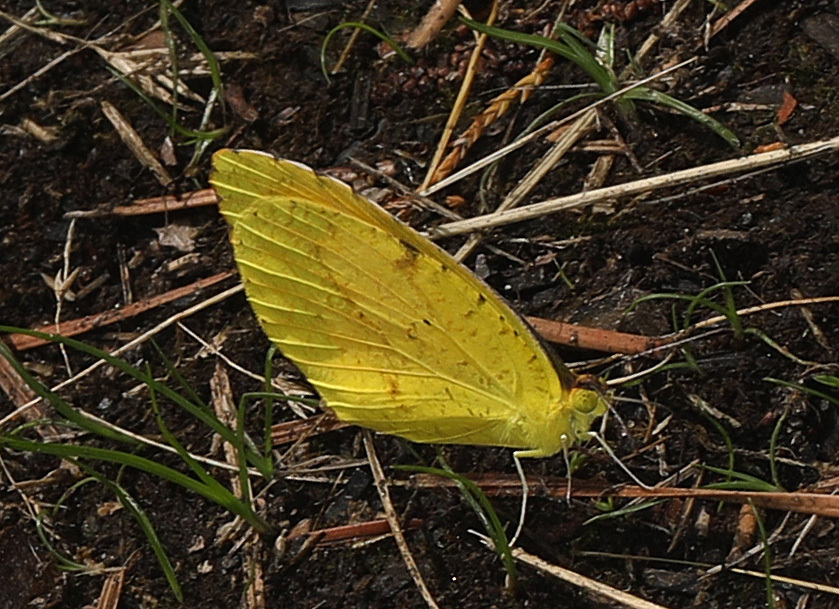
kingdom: Animalia
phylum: Arthropoda
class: Insecta
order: Lepidoptera
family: Pieridae
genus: Abaeis
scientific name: Abaeis nicippe
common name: Sleepy orange
